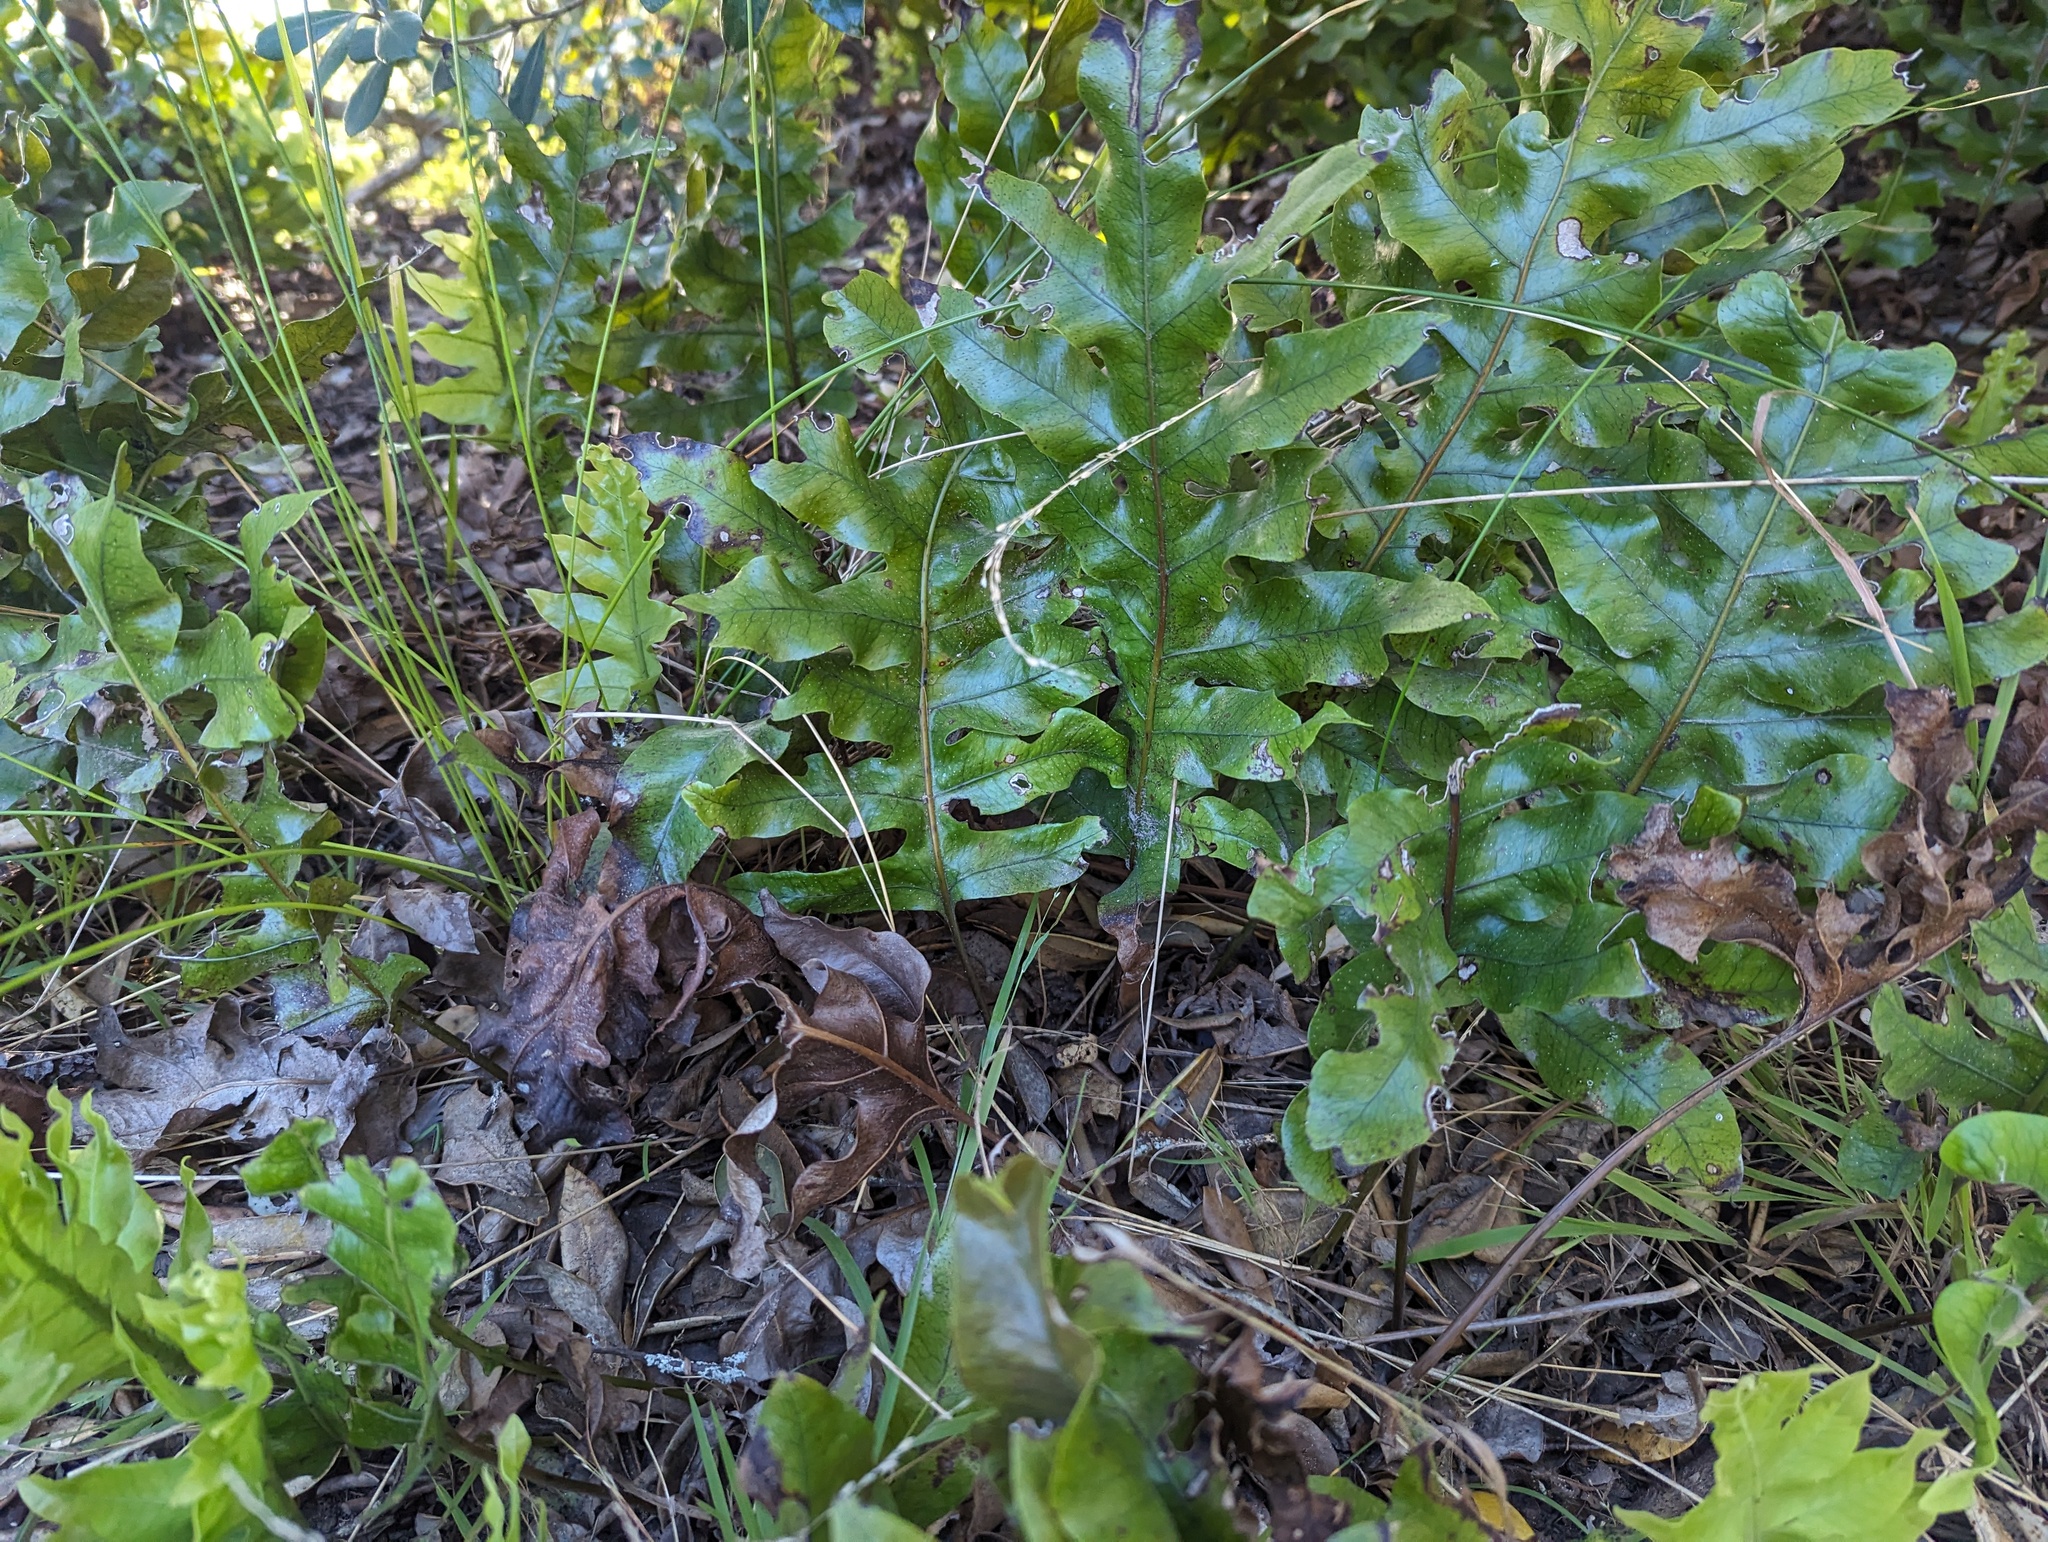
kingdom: Plantae
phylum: Tracheophyta
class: Polypodiopsida
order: Polypodiales
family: Polypodiaceae
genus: Lecanopteris
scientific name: Lecanopteris pustulata
